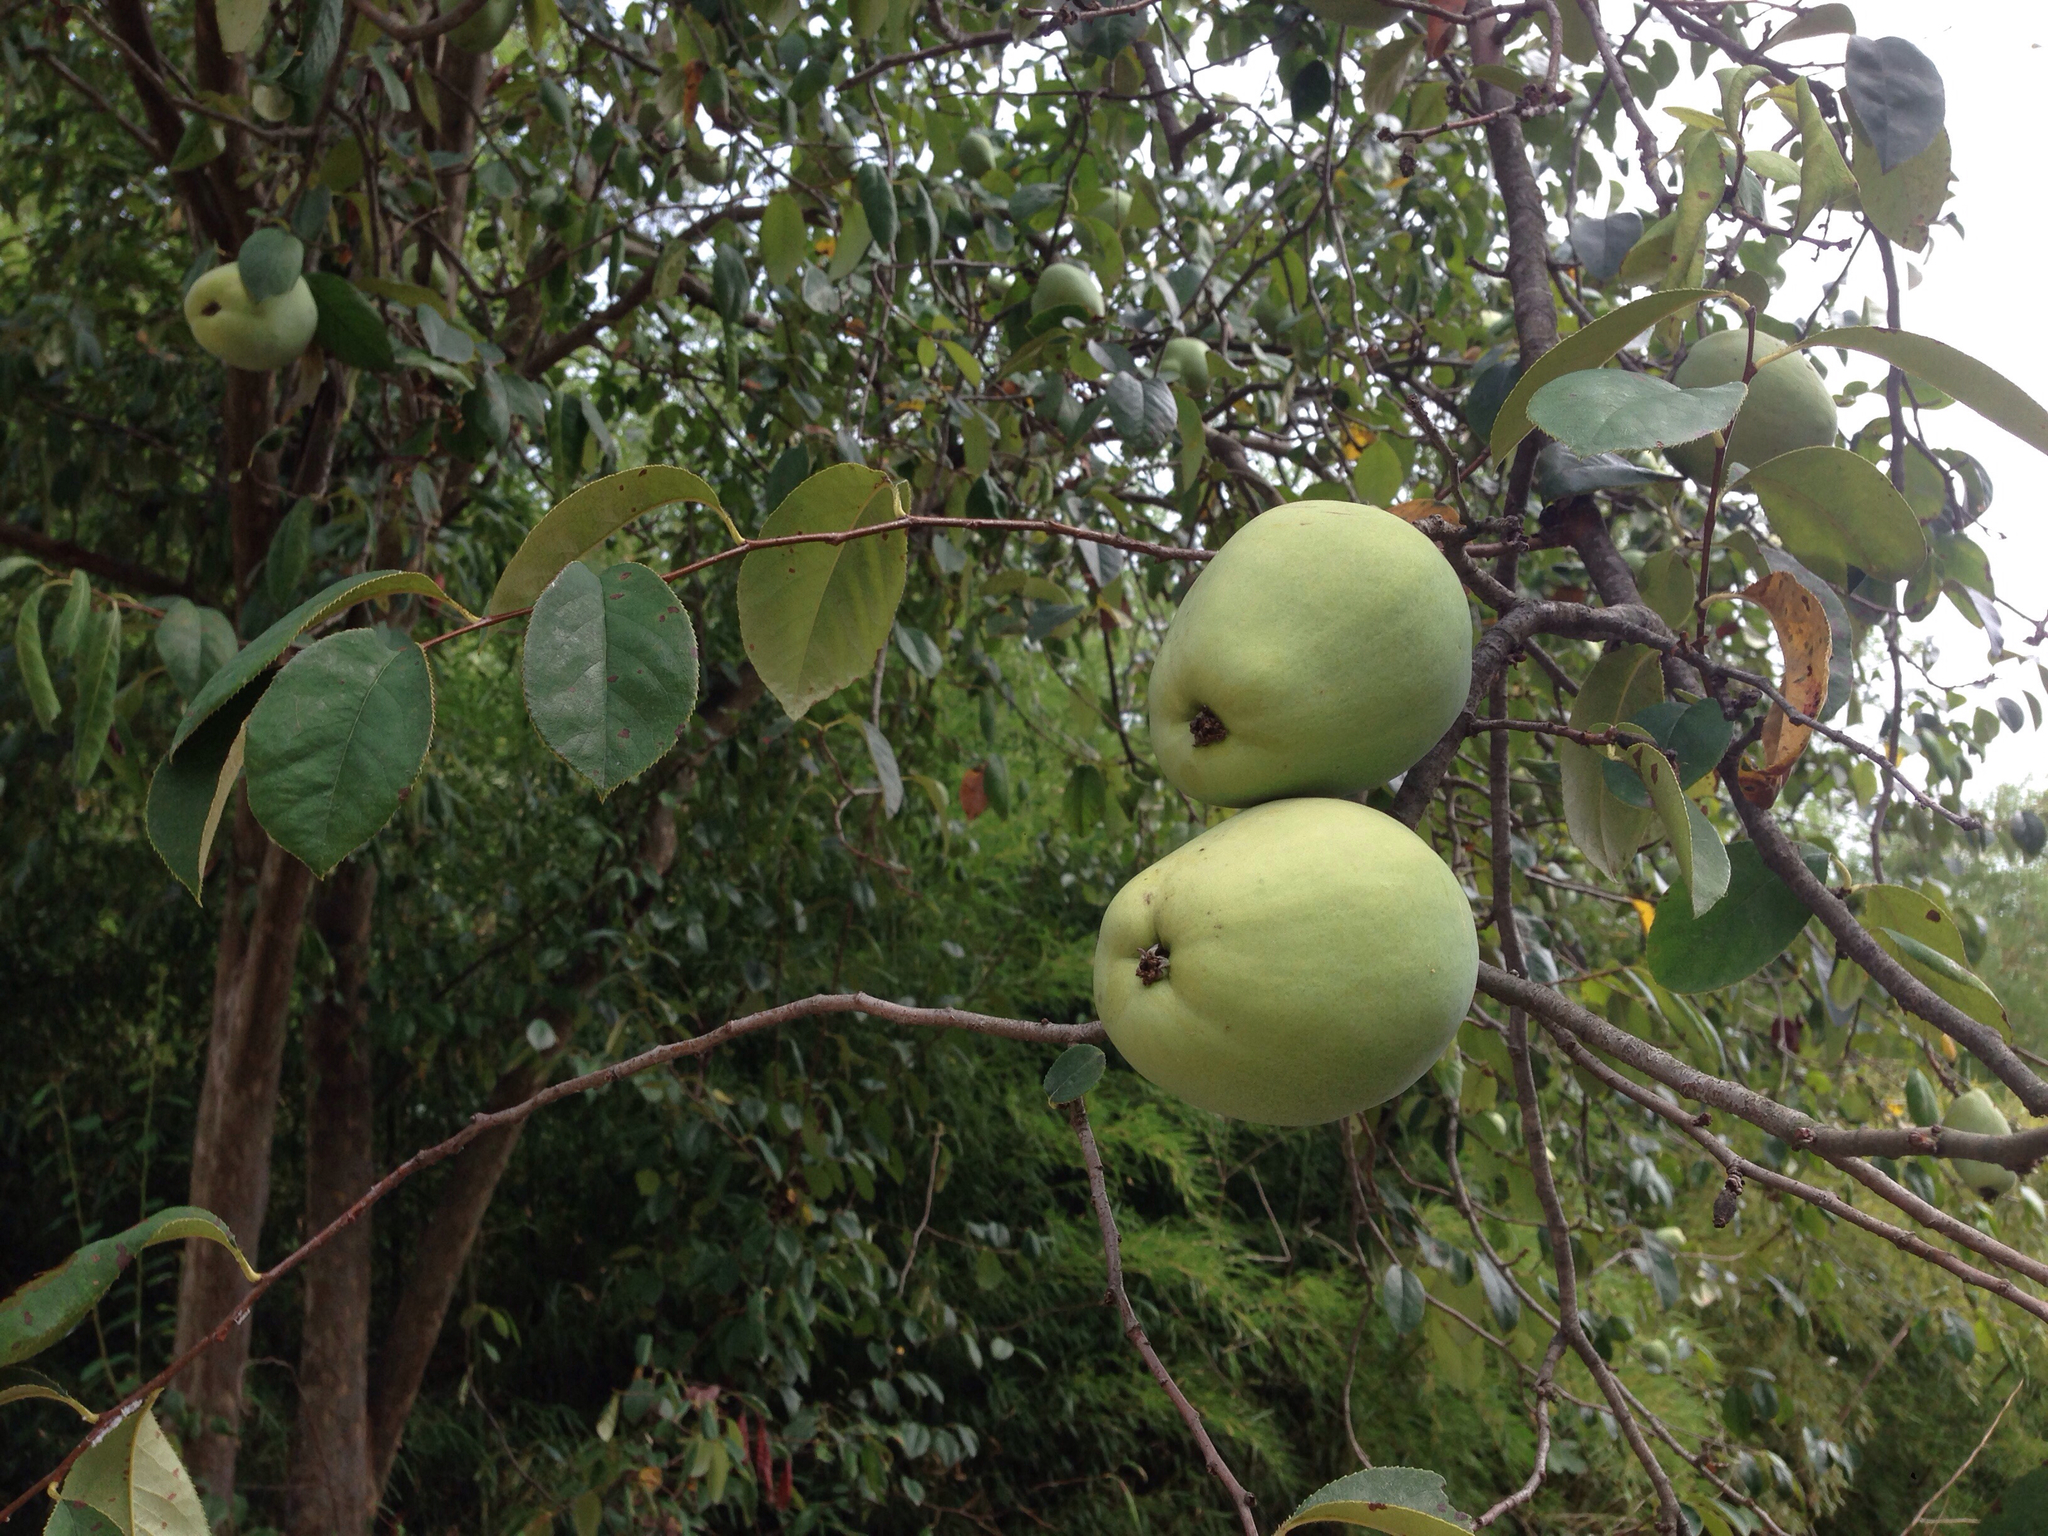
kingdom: Plantae
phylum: Tracheophyta
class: Magnoliopsida
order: Rosales
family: Rosaceae
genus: Pseudocydonia
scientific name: Pseudocydonia sinensis
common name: Chinese-quince
